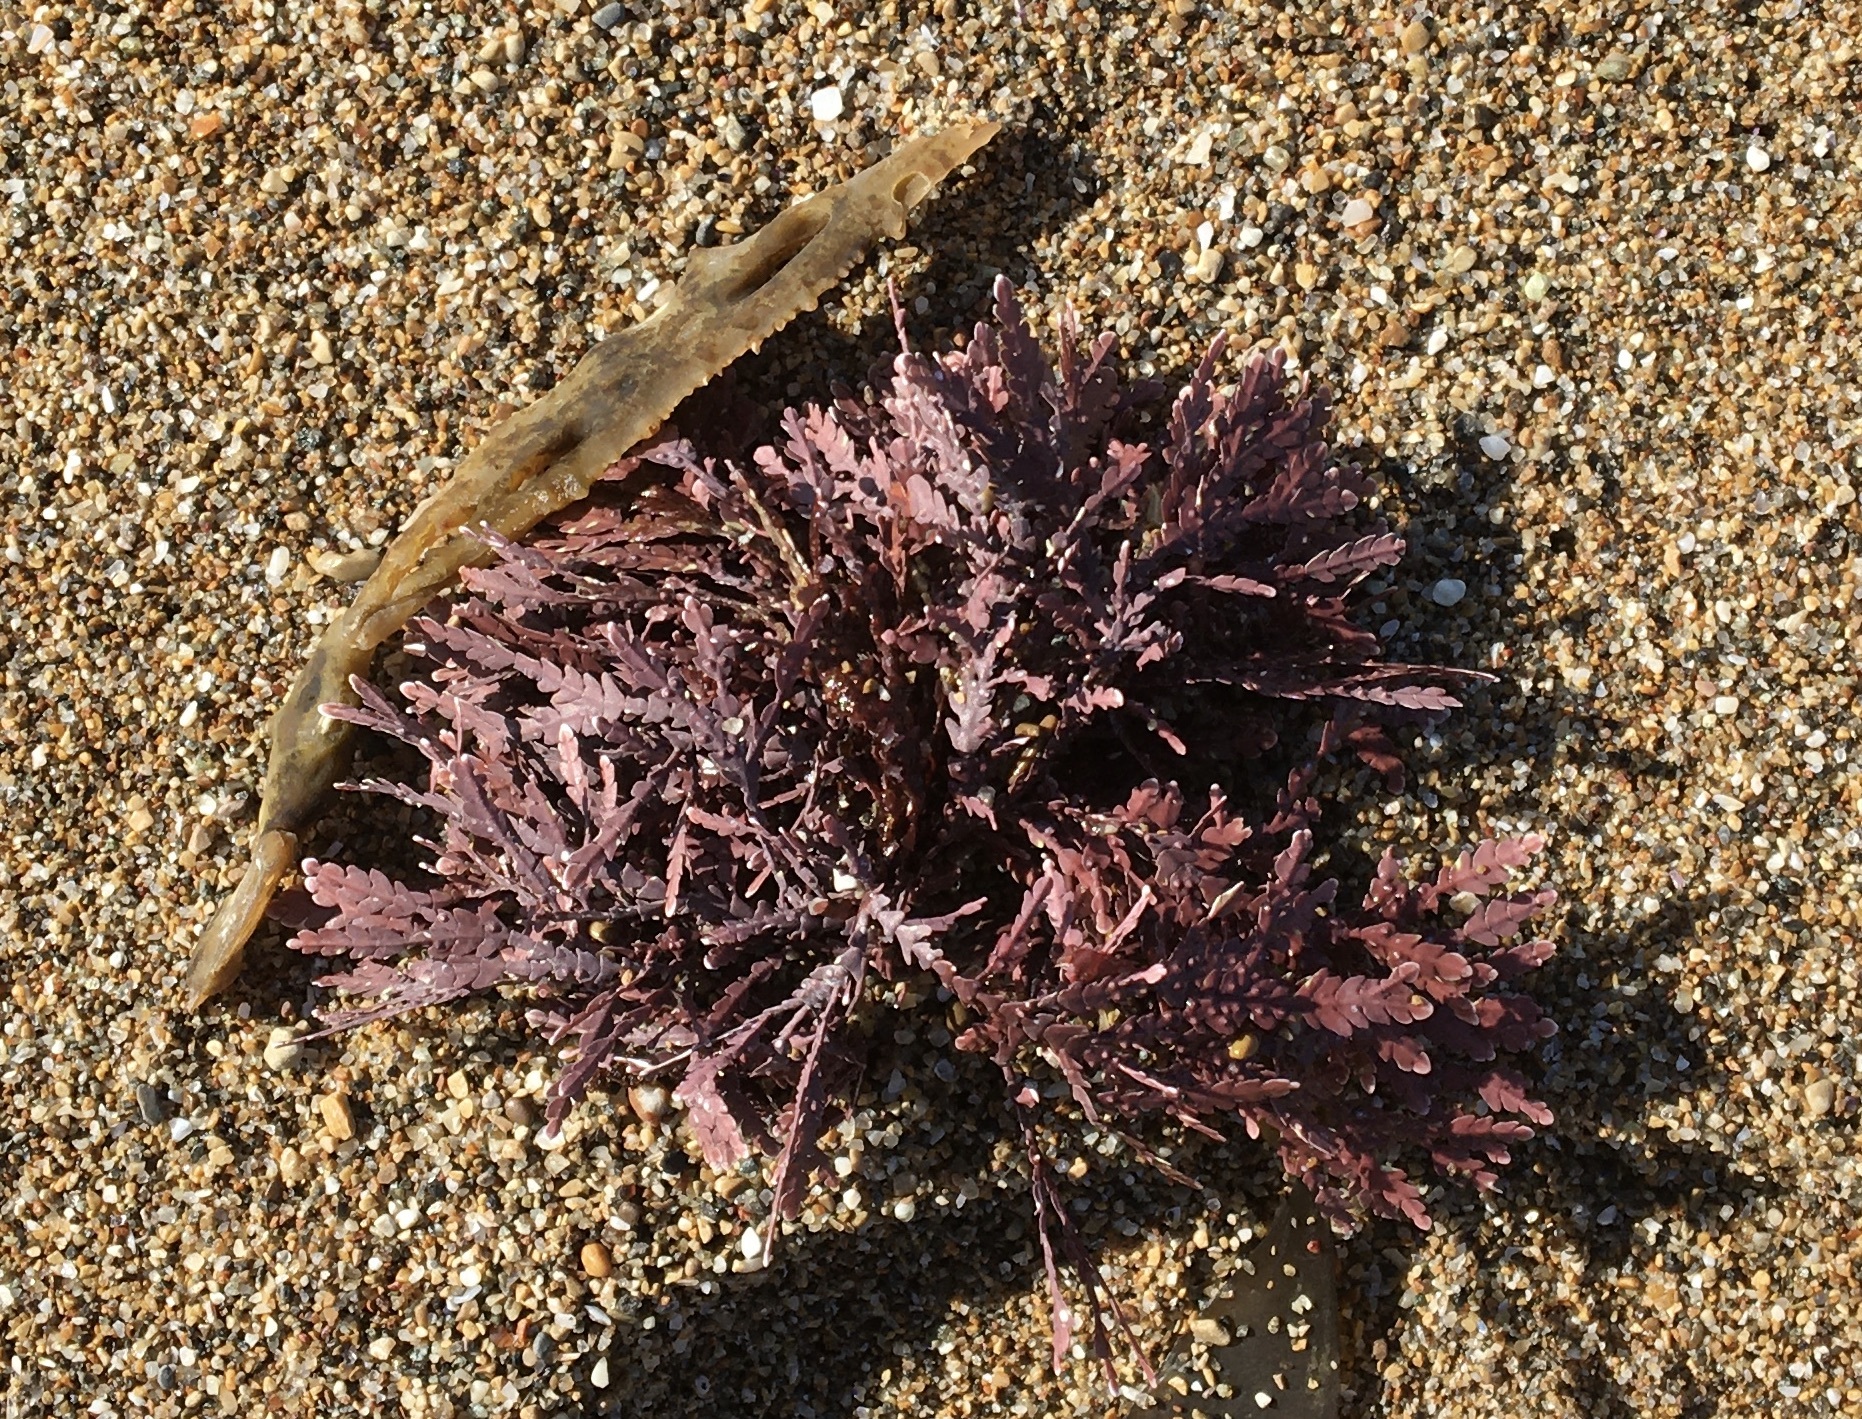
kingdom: Plantae
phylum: Rhodophyta
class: Florideophyceae
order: Corallinales
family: Corallinaceae
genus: Corallina
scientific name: Corallina officinalis
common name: Coral weed
